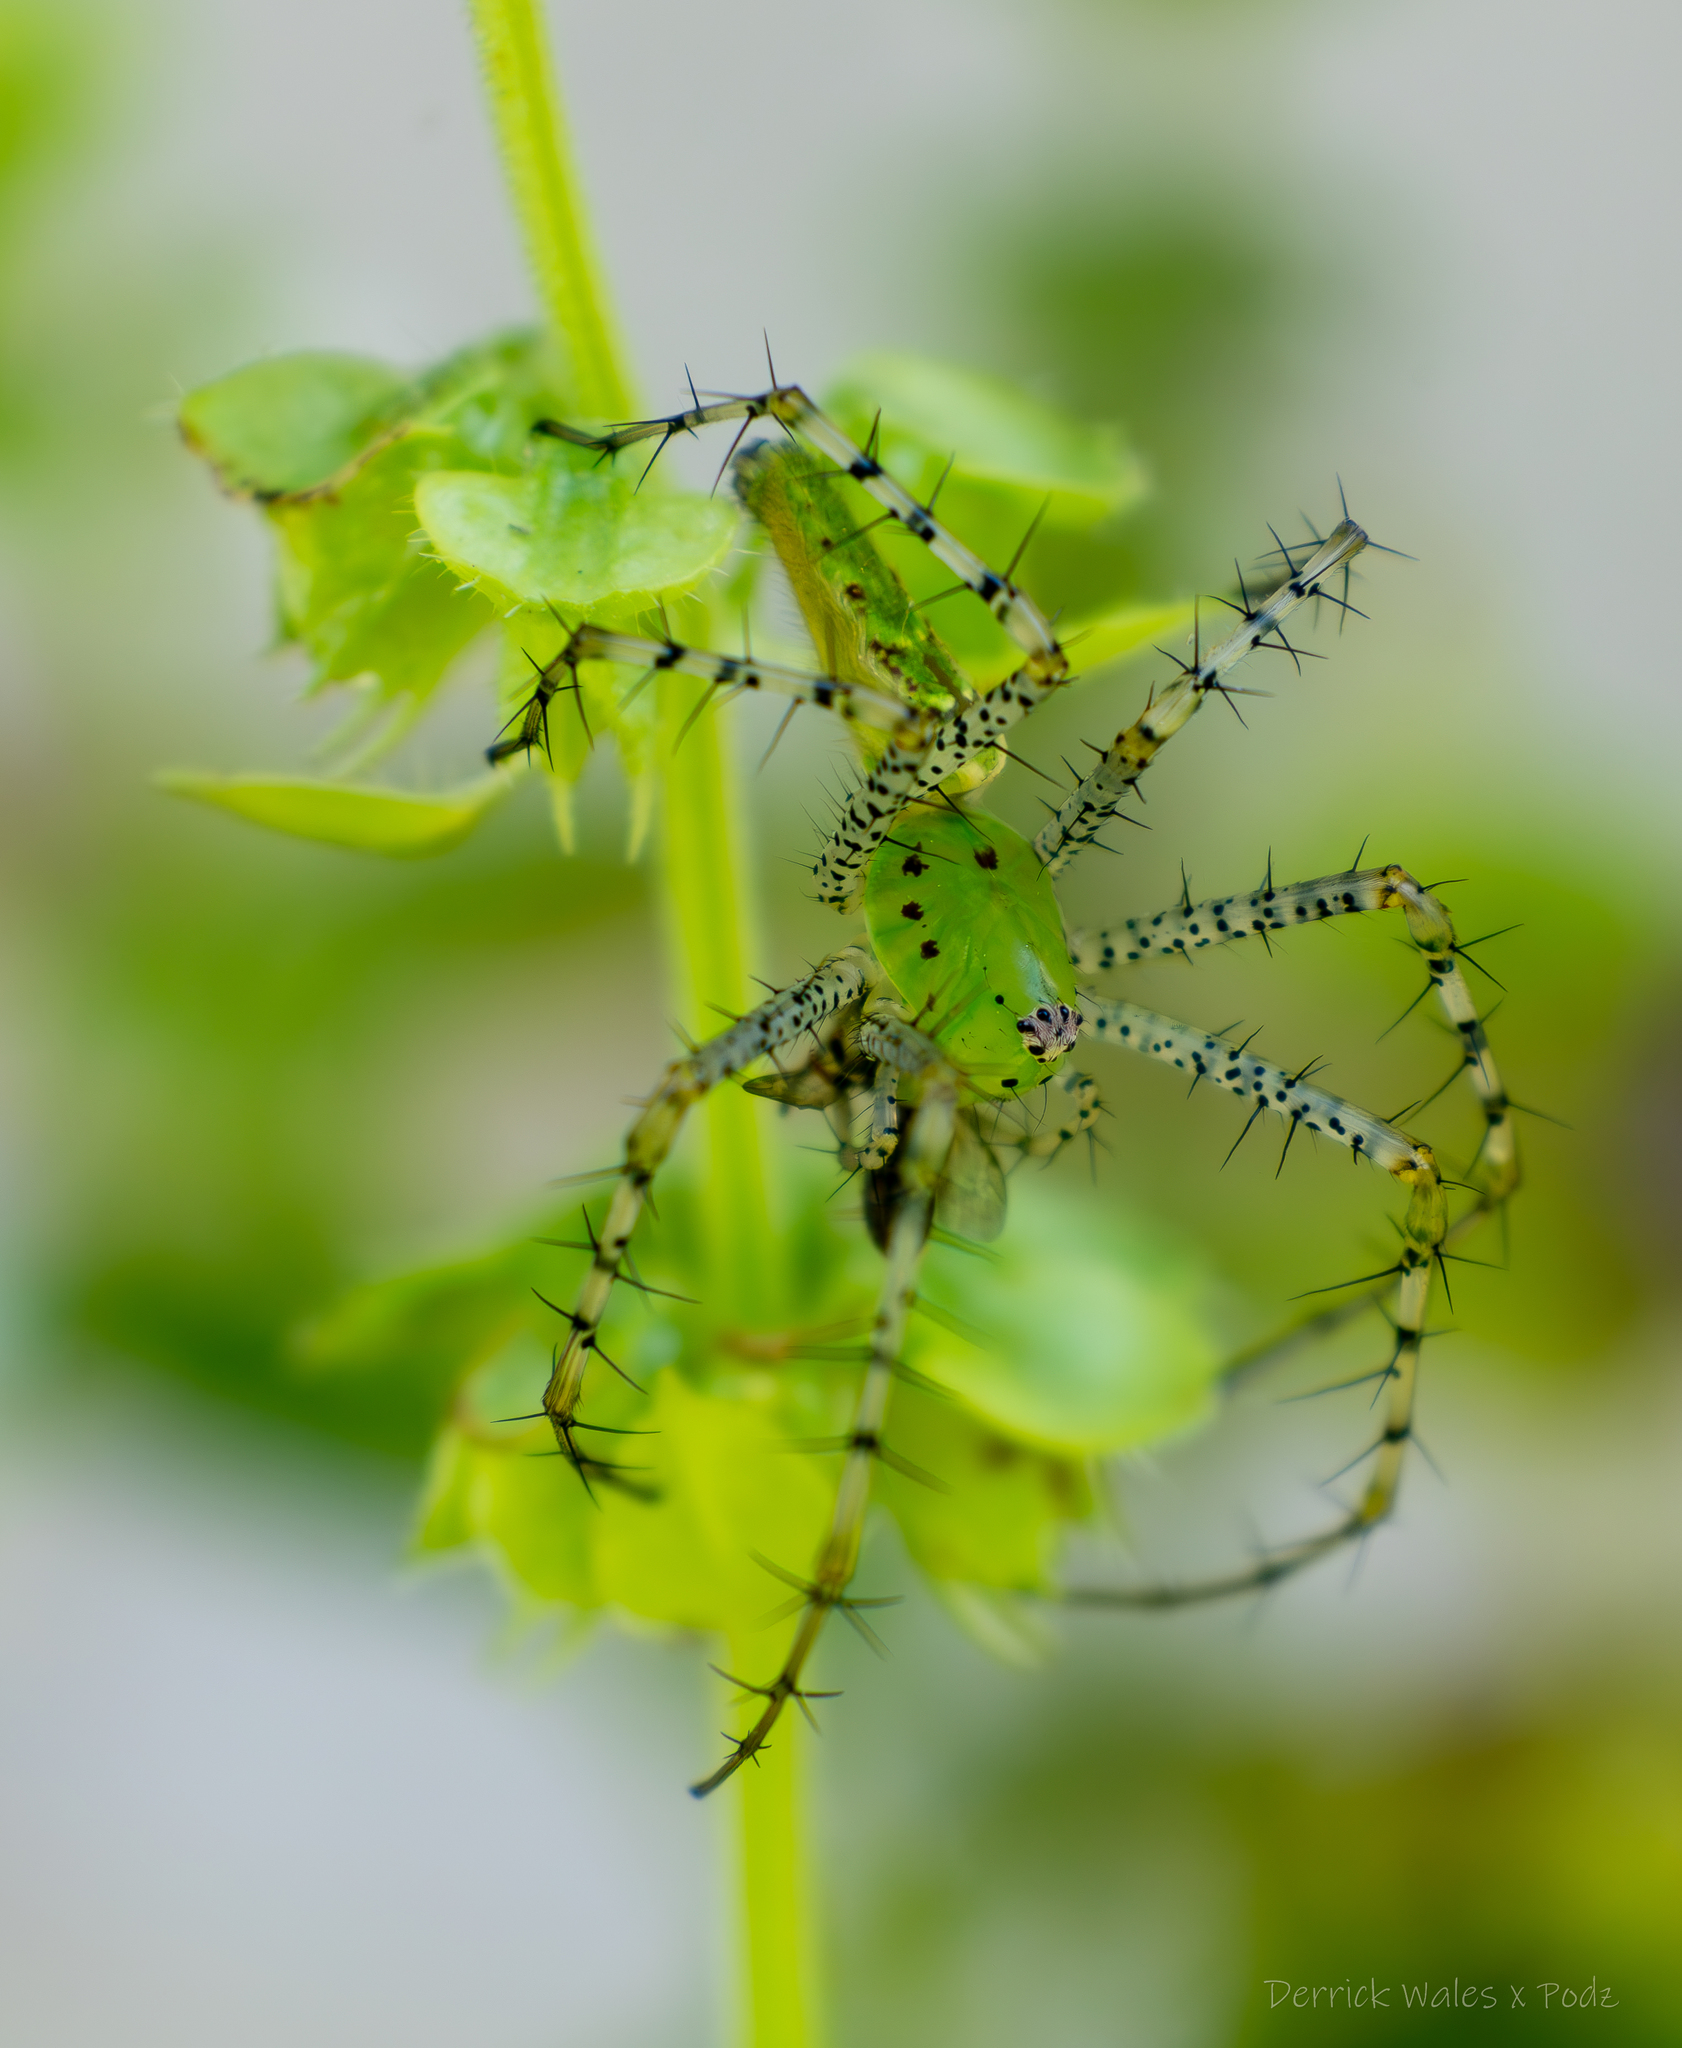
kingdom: Animalia
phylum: Arthropoda
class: Arachnida
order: Araneae
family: Oxyopidae
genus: Peucetia
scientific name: Peucetia viridans
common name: Lynx spiders
